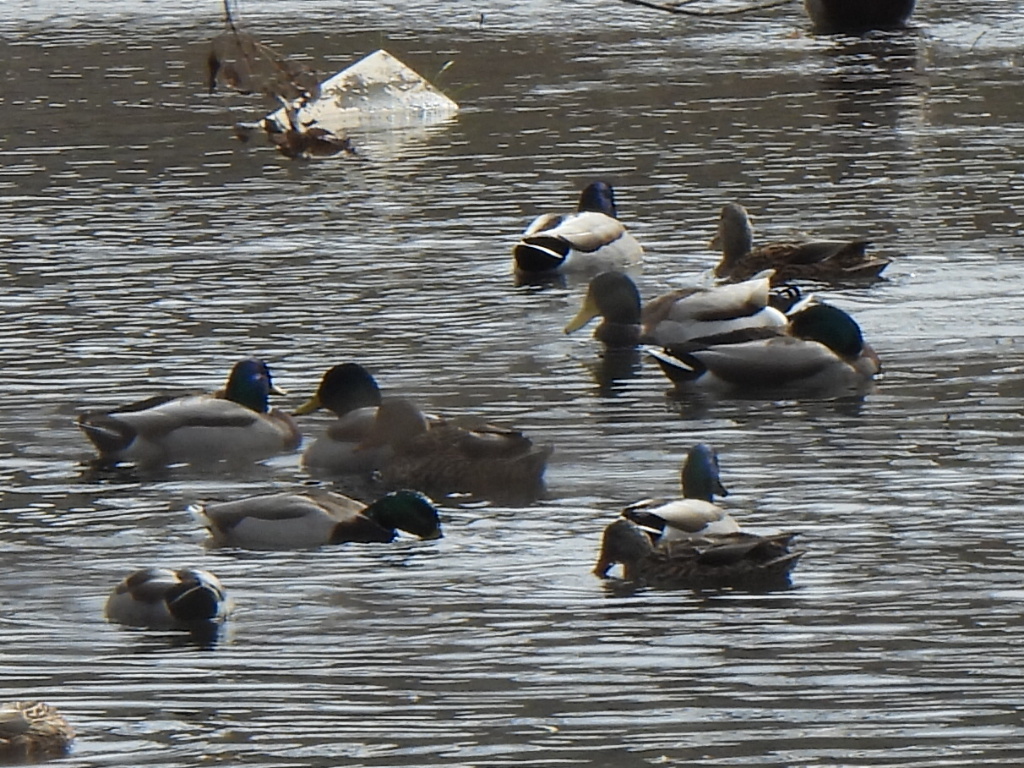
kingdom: Animalia
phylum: Chordata
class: Aves
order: Anseriformes
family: Anatidae
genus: Anas
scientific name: Anas platyrhynchos
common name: Mallard
